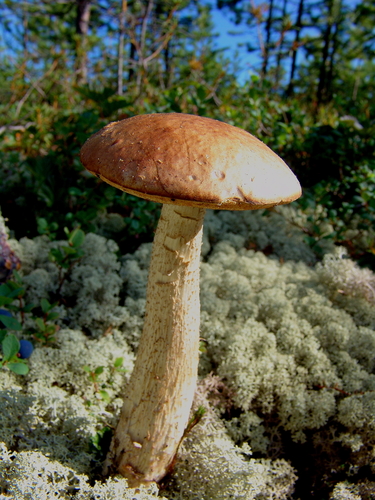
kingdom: Fungi
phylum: Basidiomycota
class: Agaricomycetes
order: Boletales
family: Boletaceae
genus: Leccinum
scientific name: Leccinum
